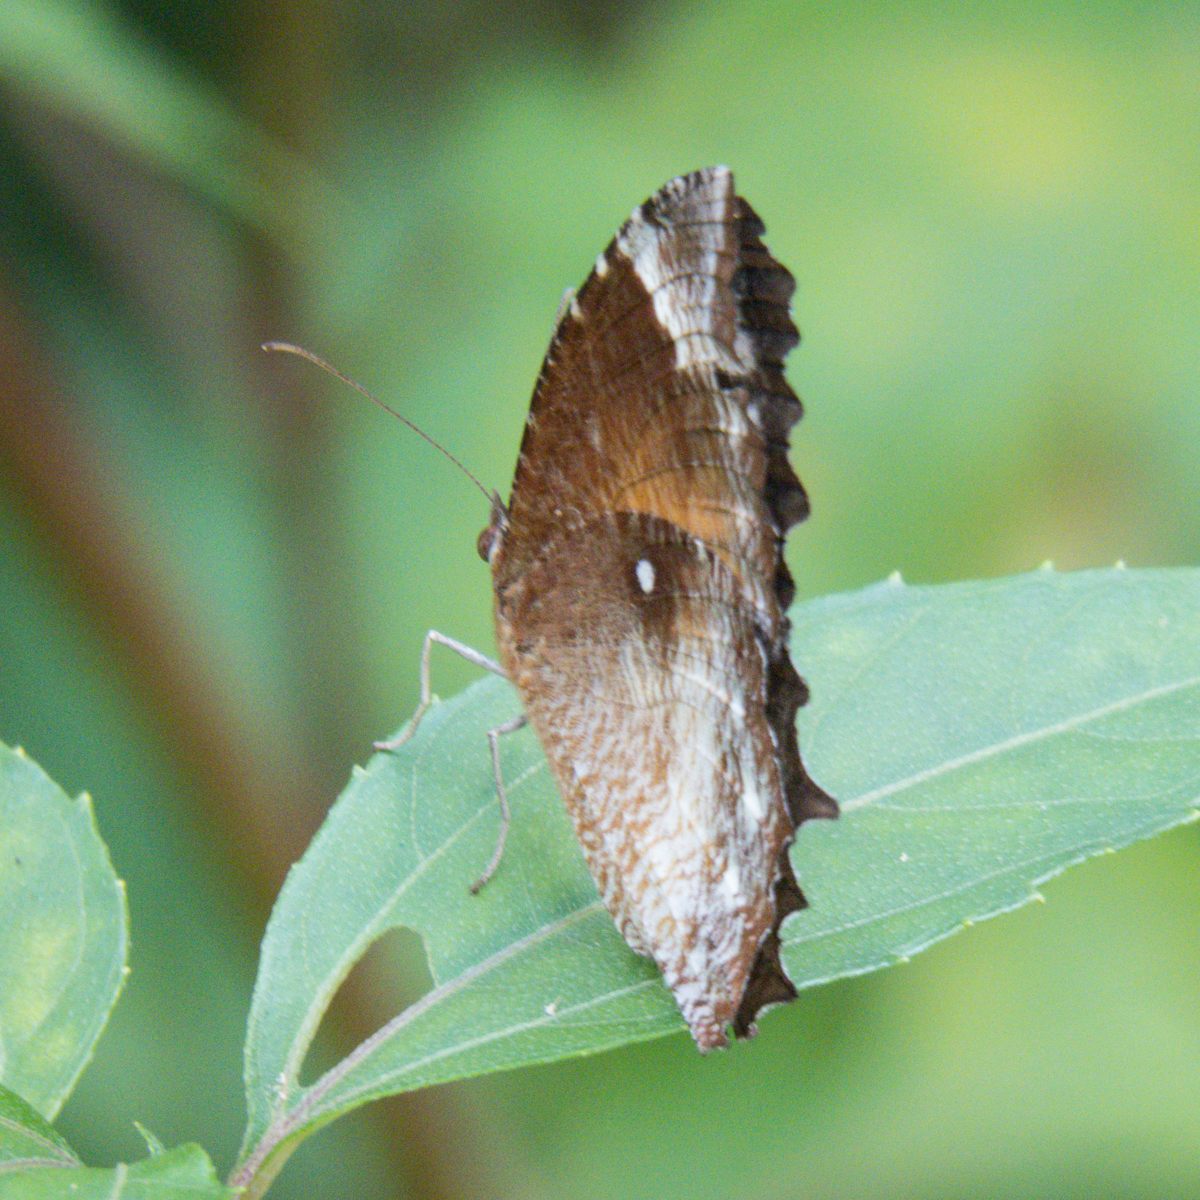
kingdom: Animalia
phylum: Arthropoda
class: Insecta
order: Lepidoptera
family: Nymphalidae
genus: Elymnias
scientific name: Elymnias hypermnestra
